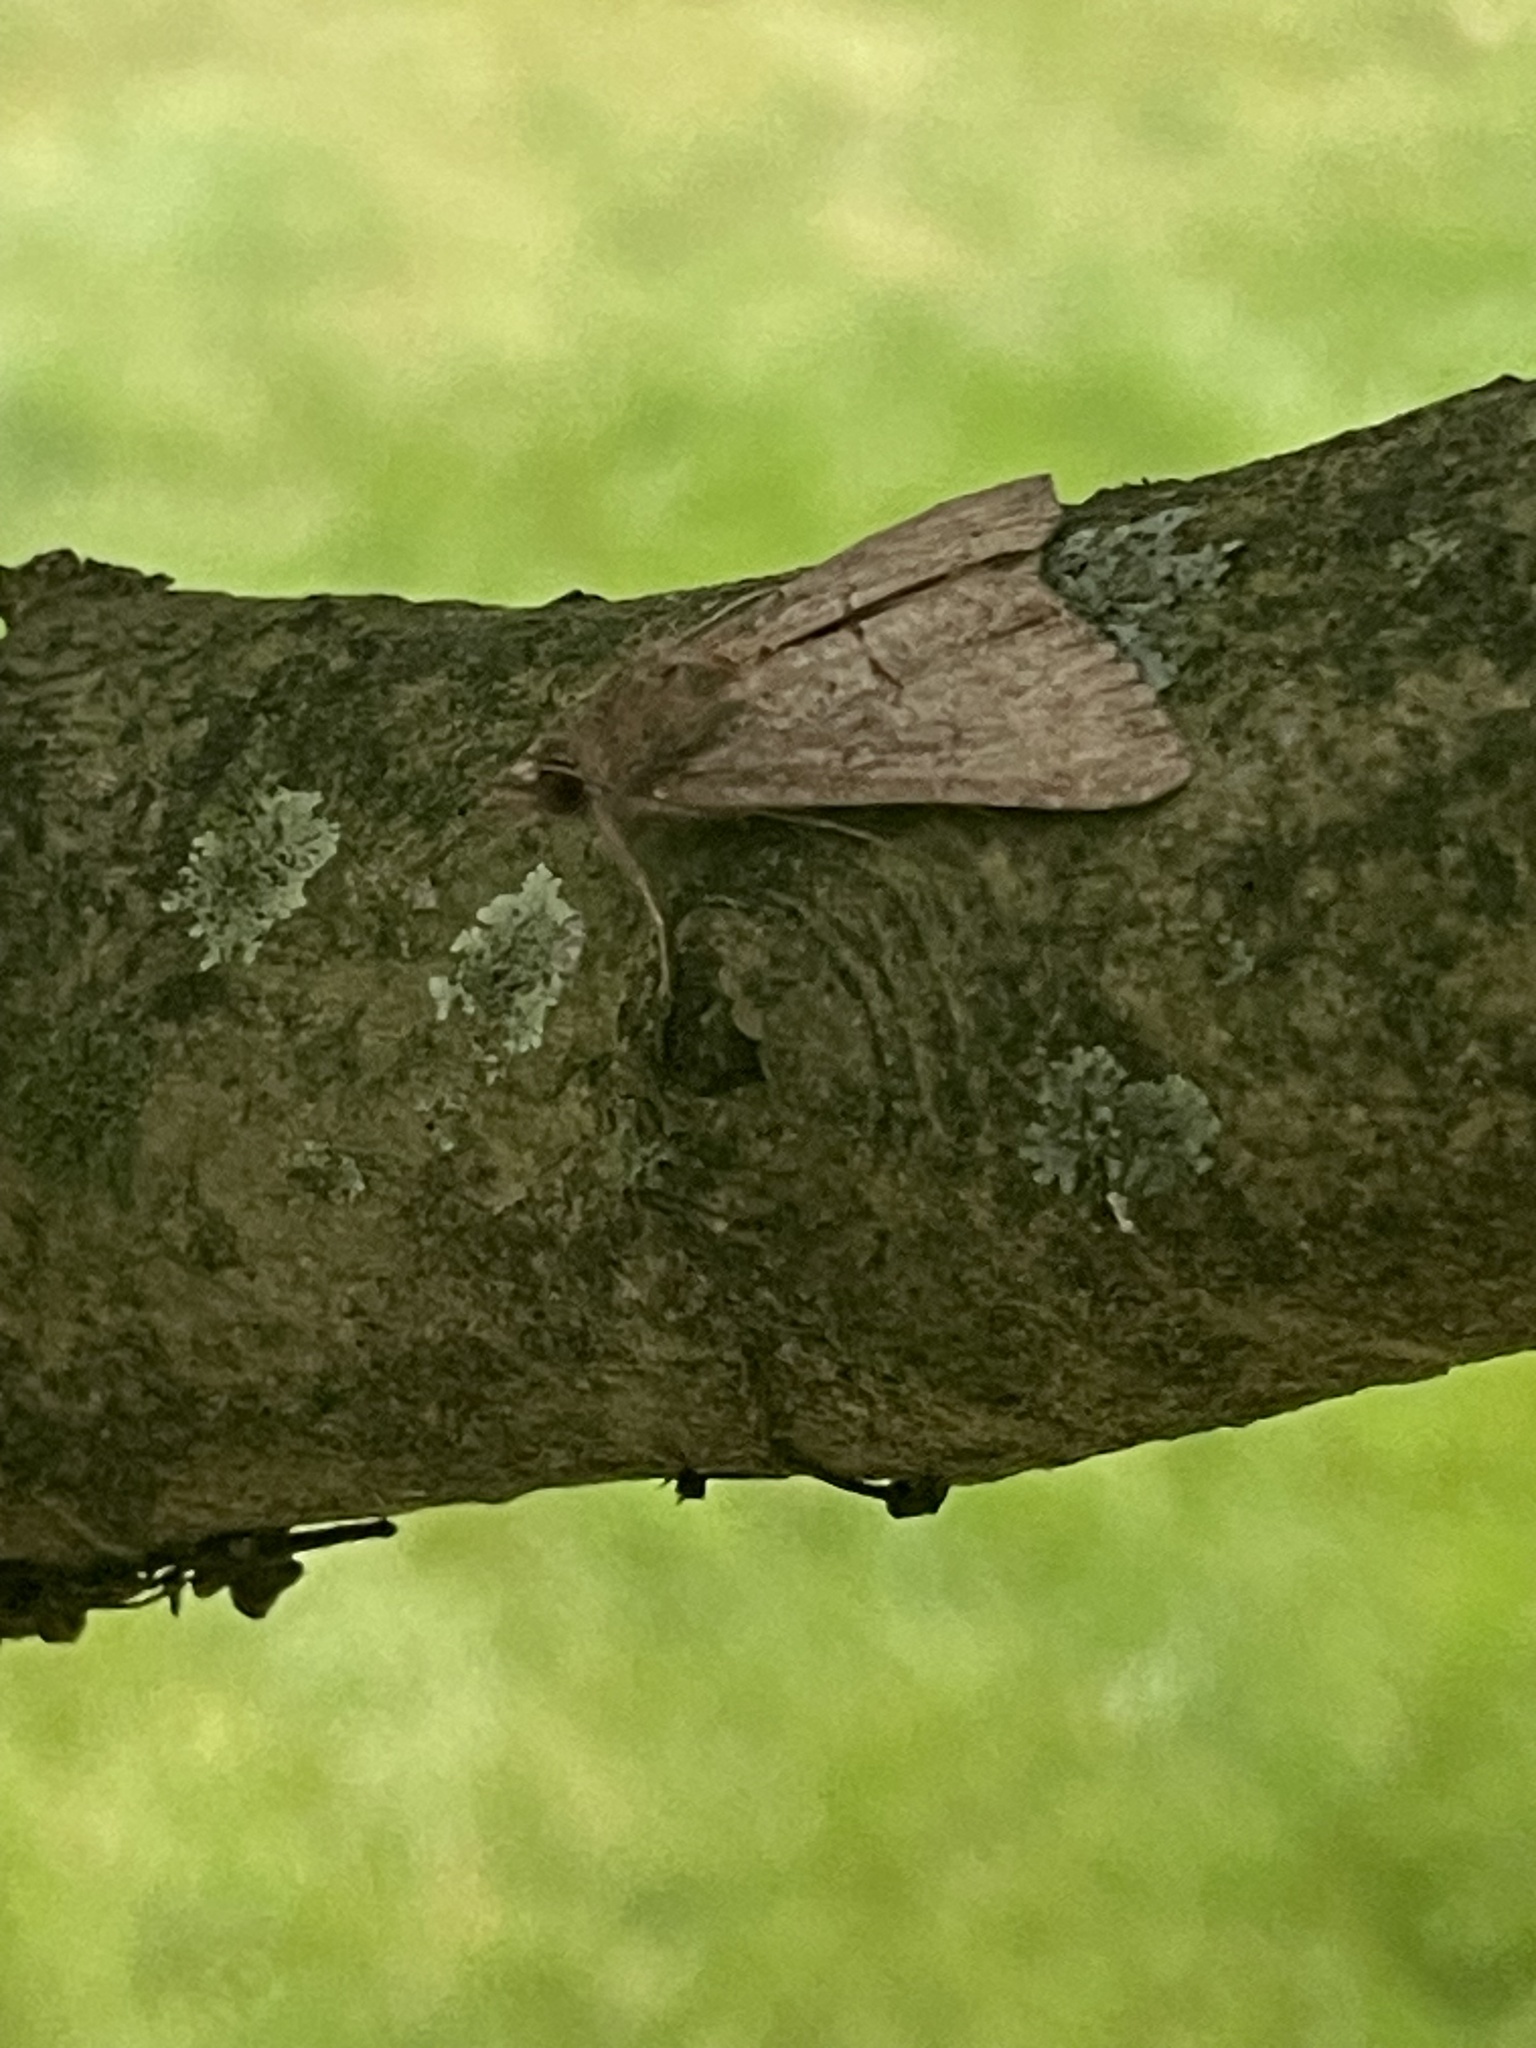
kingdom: Animalia
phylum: Arthropoda
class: Insecta
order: Lepidoptera
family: Erebidae
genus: Hypena
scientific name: Hypena scabra
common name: Green cloverworm
